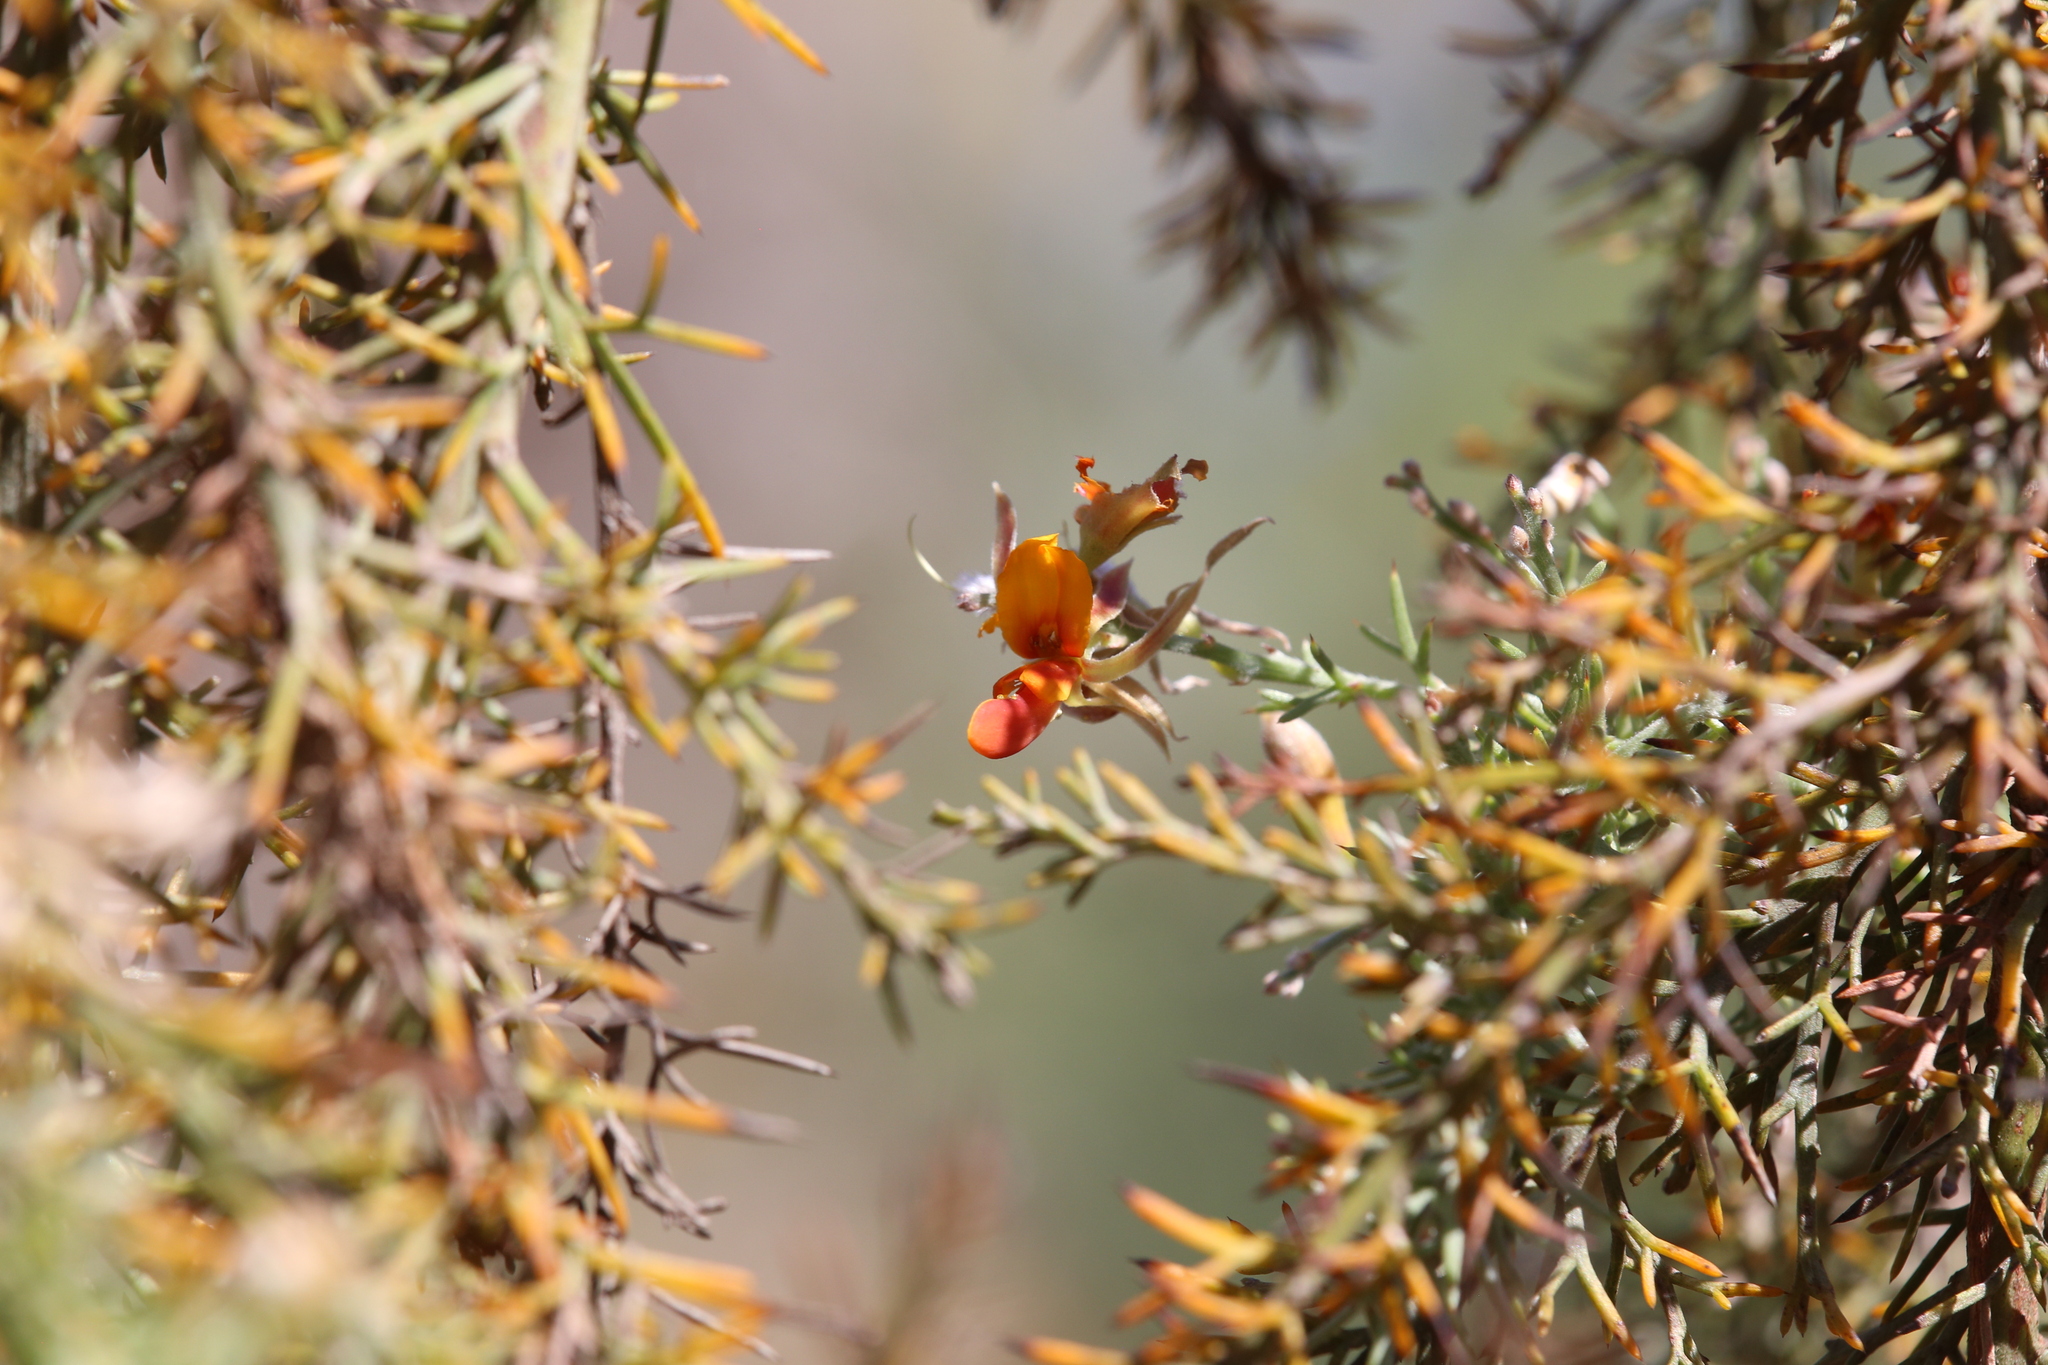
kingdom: Plantae
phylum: Tracheophyta
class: Magnoliopsida
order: Fabales
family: Fabaceae
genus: Jacksonia
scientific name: Jacksonia furcellata
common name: Grey stinkwood
